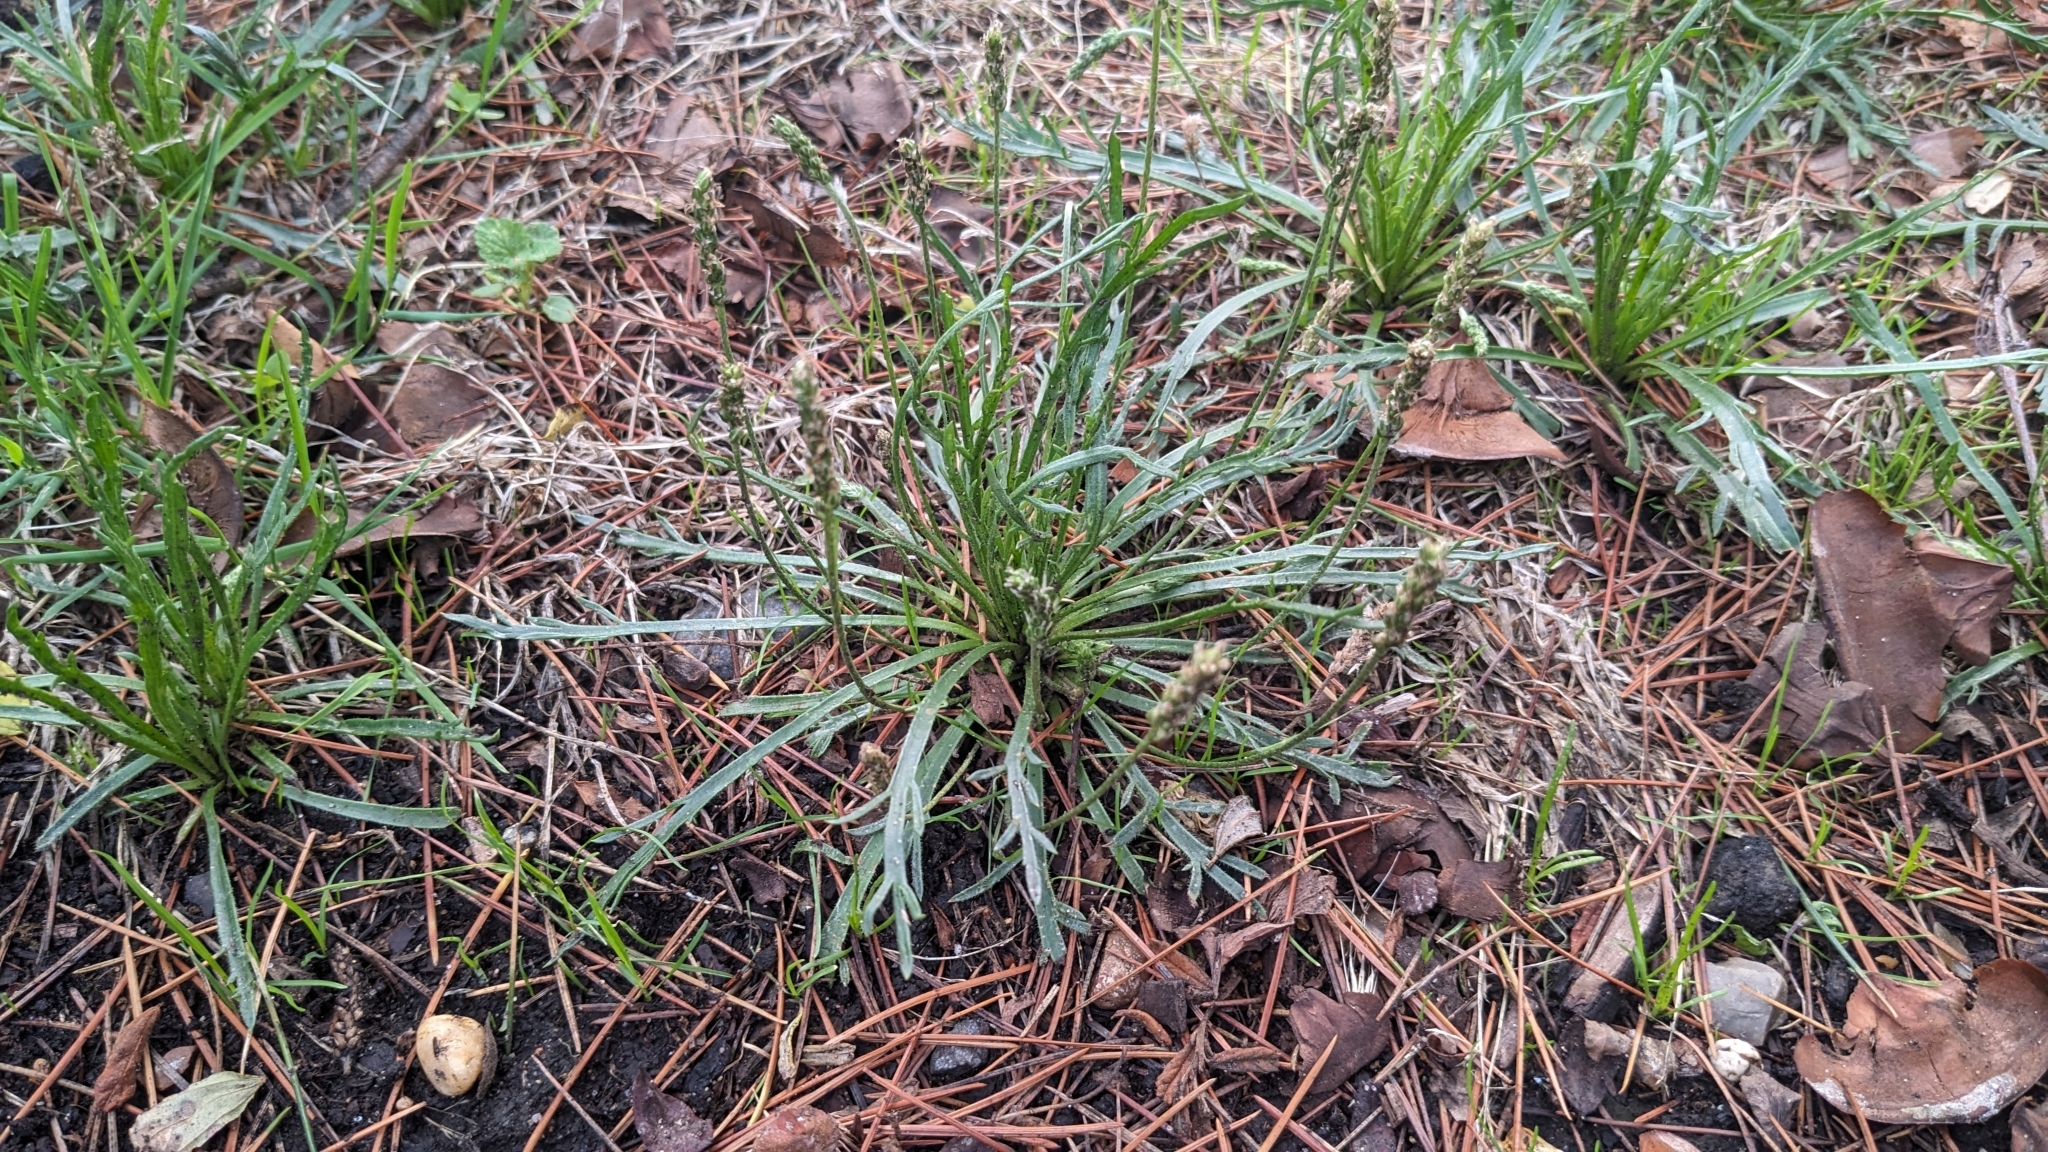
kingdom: Plantae
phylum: Tracheophyta
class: Magnoliopsida
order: Lamiales
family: Plantaginaceae
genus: Plantago
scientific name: Plantago coronopus
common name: Buck's-horn plantain
